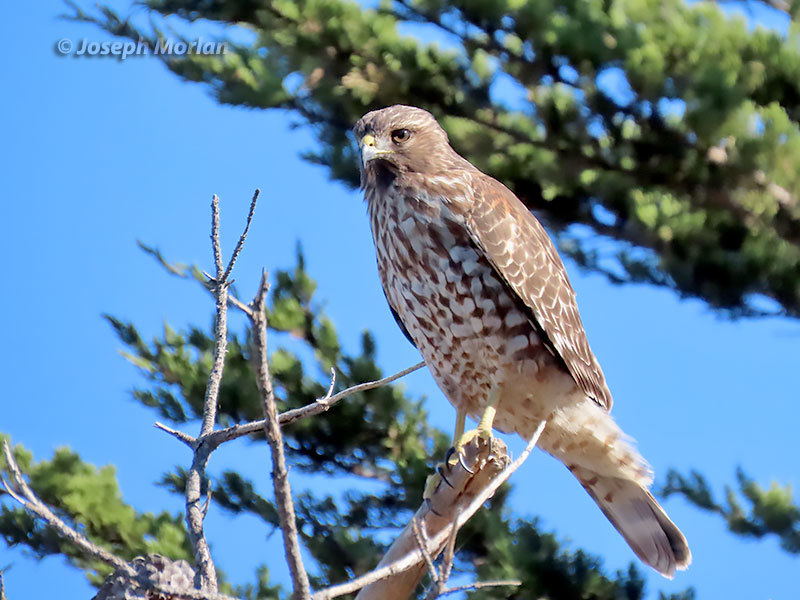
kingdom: Animalia
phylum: Chordata
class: Aves
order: Accipitriformes
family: Accipitridae
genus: Buteo
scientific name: Buteo lineatus
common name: Red-shouldered hawk
